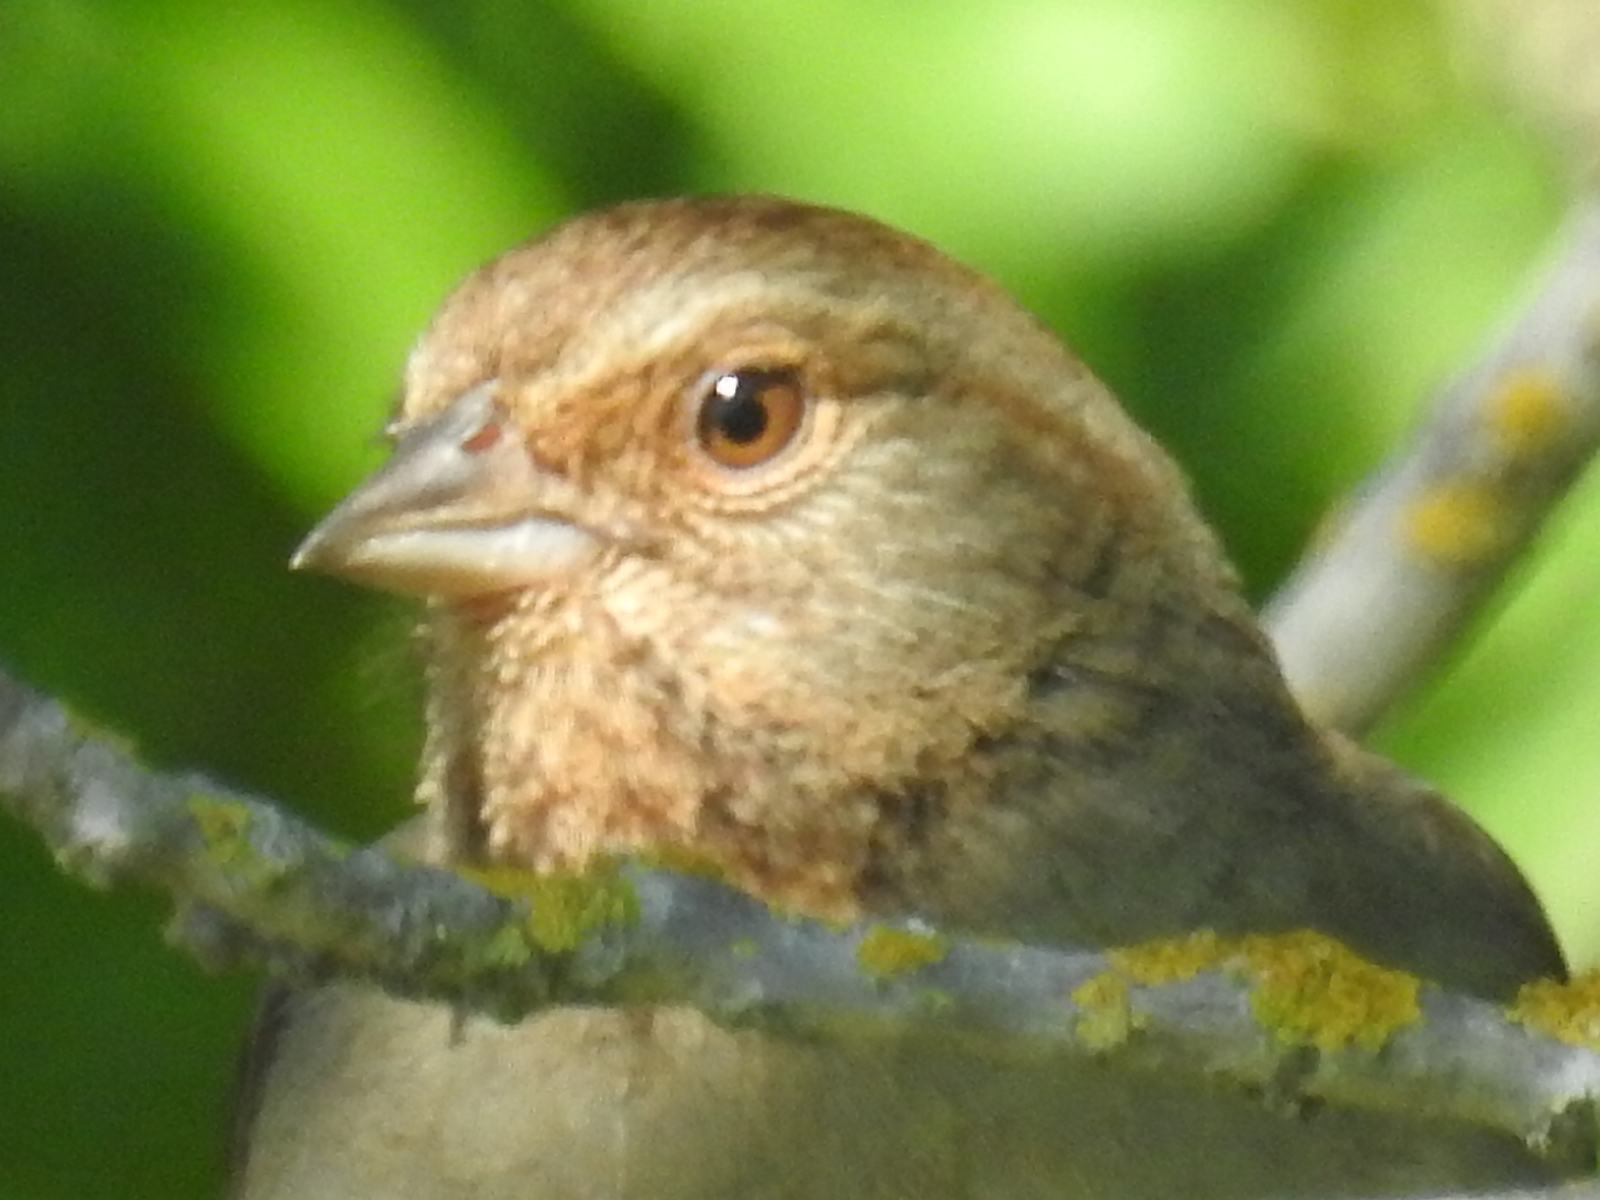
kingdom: Animalia
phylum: Chordata
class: Aves
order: Passeriformes
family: Passerellidae
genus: Melozone
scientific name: Melozone crissalis
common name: California towhee
